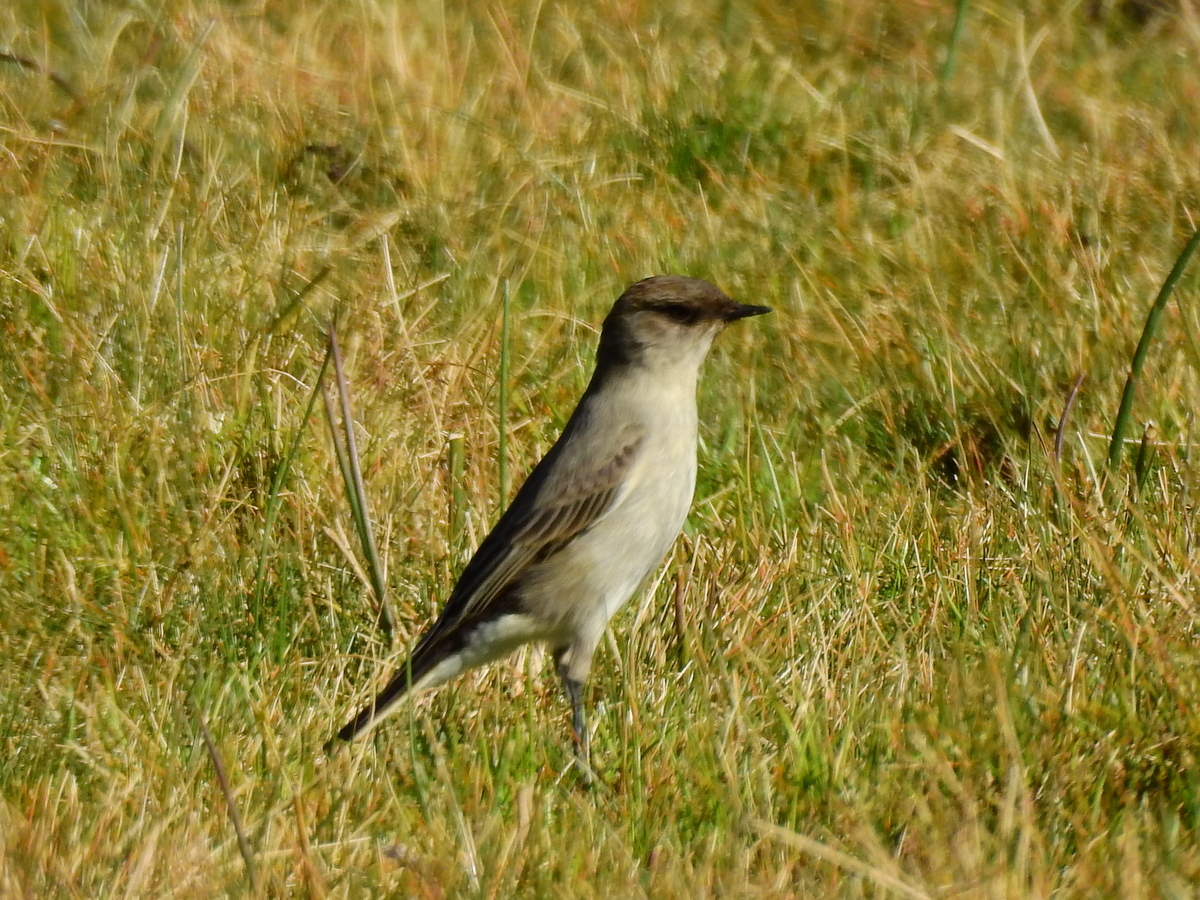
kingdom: Animalia
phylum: Chordata
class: Aves
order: Passeriformes
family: Tyrannidae
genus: Muscisaxicola
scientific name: Muscisaxicola maclovianus
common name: Dark-faced ground tyrant
